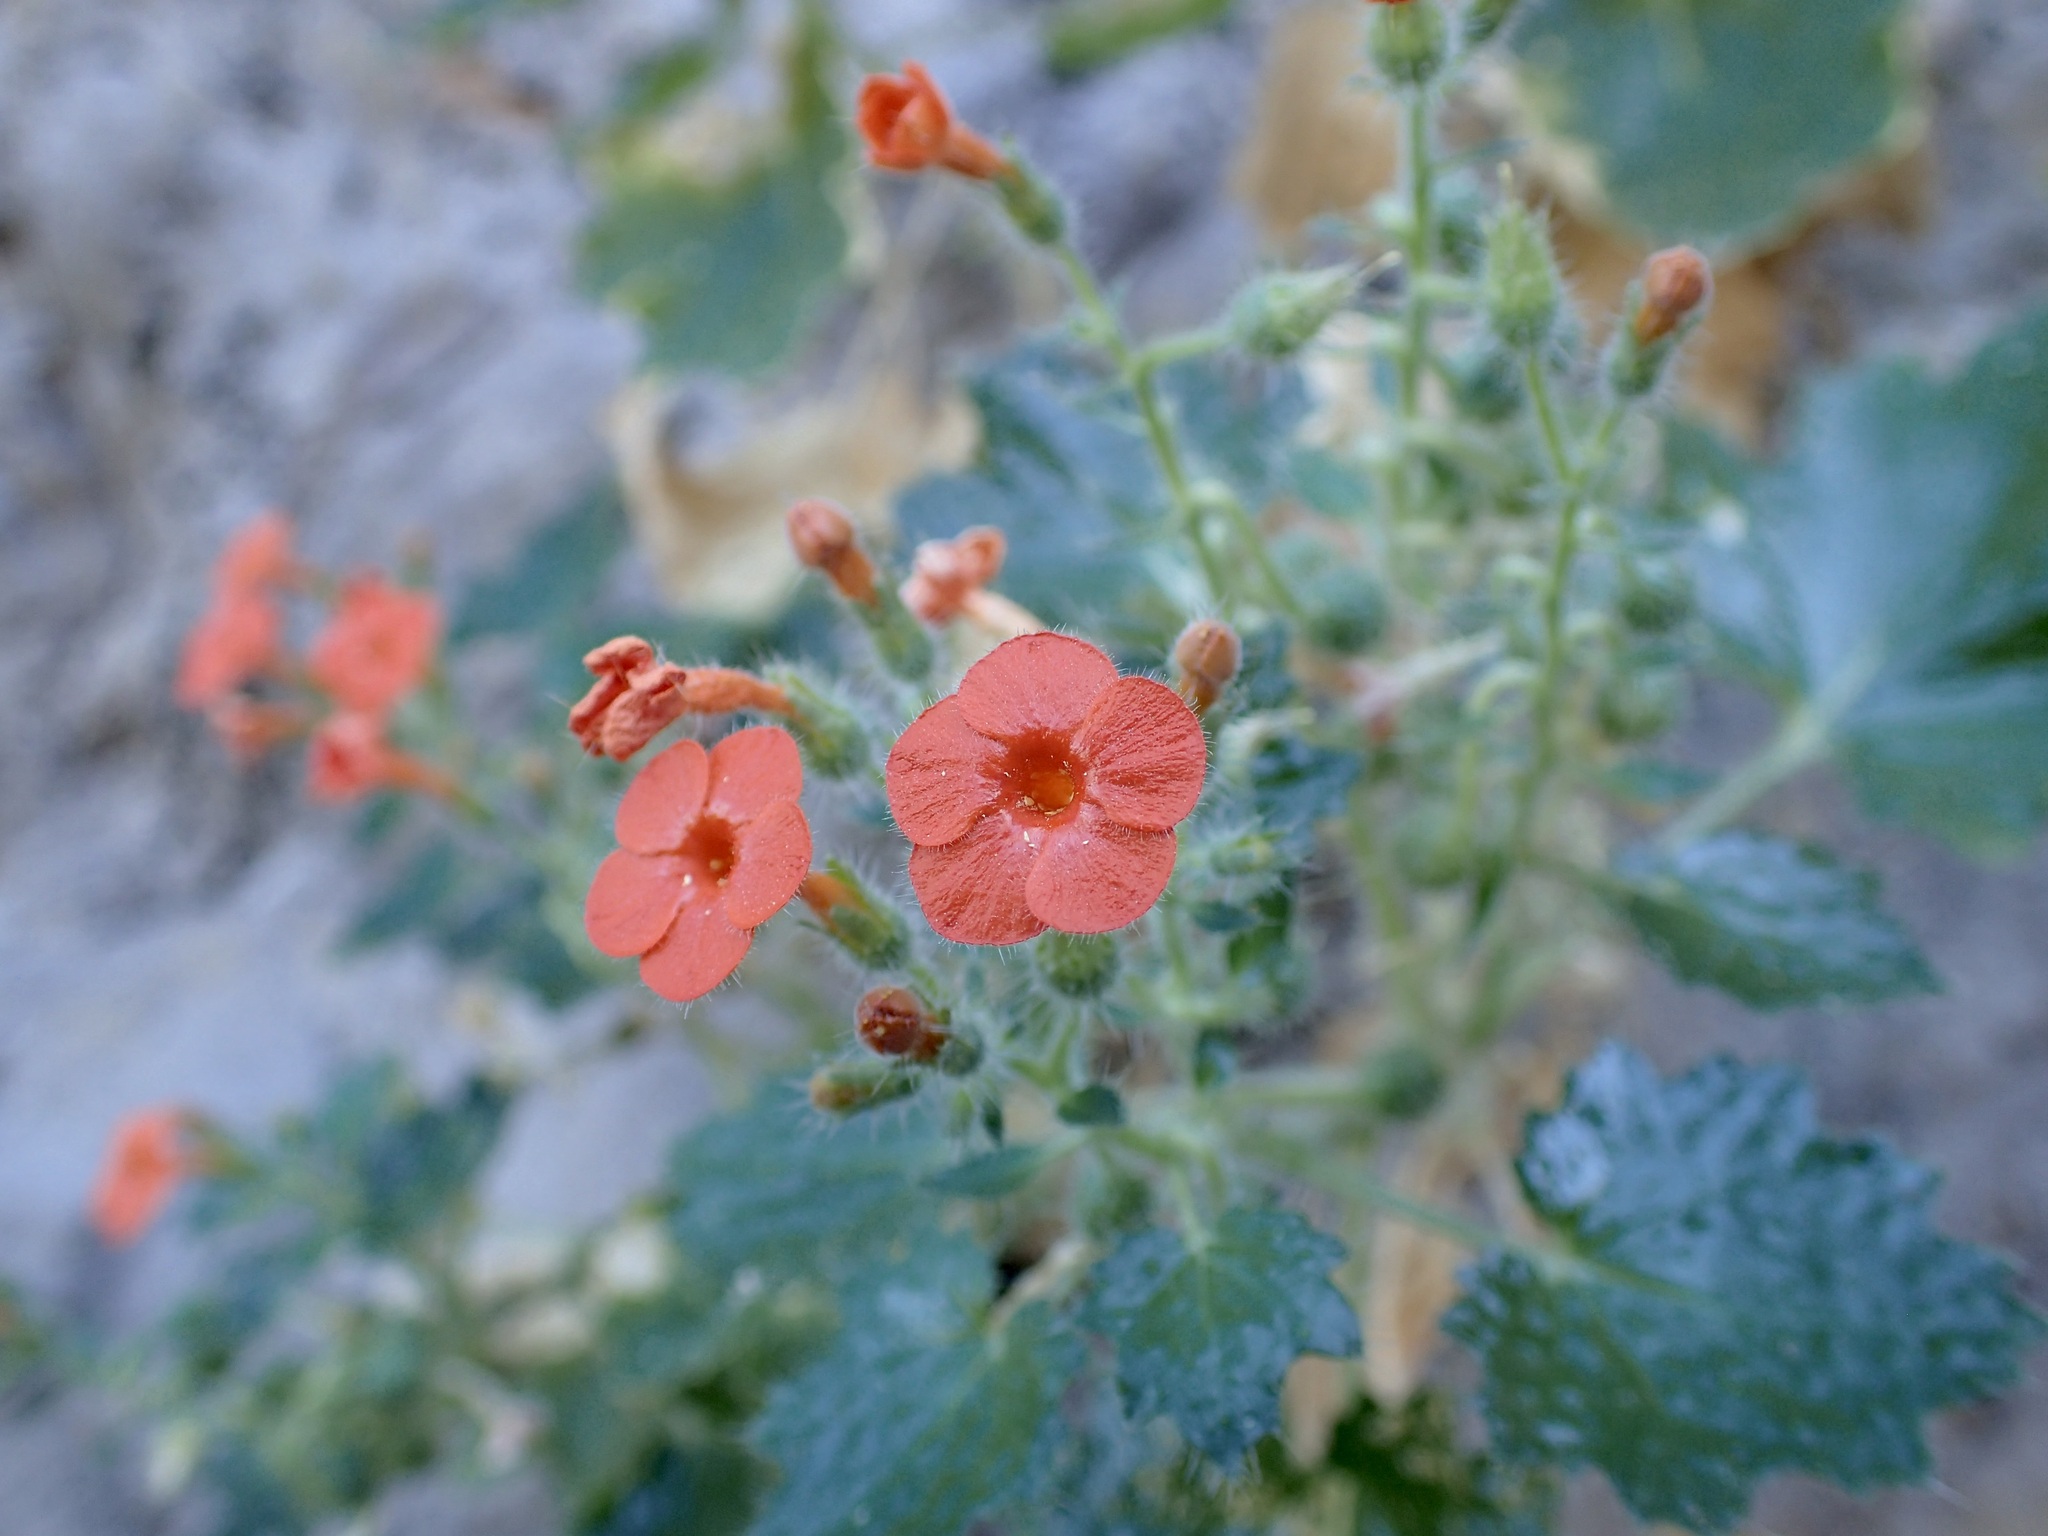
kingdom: Plantae
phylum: Tracheophyta
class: Magnoliopsida
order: Cornales
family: Loasaceae
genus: Eucnide
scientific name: Eucnide aurea
